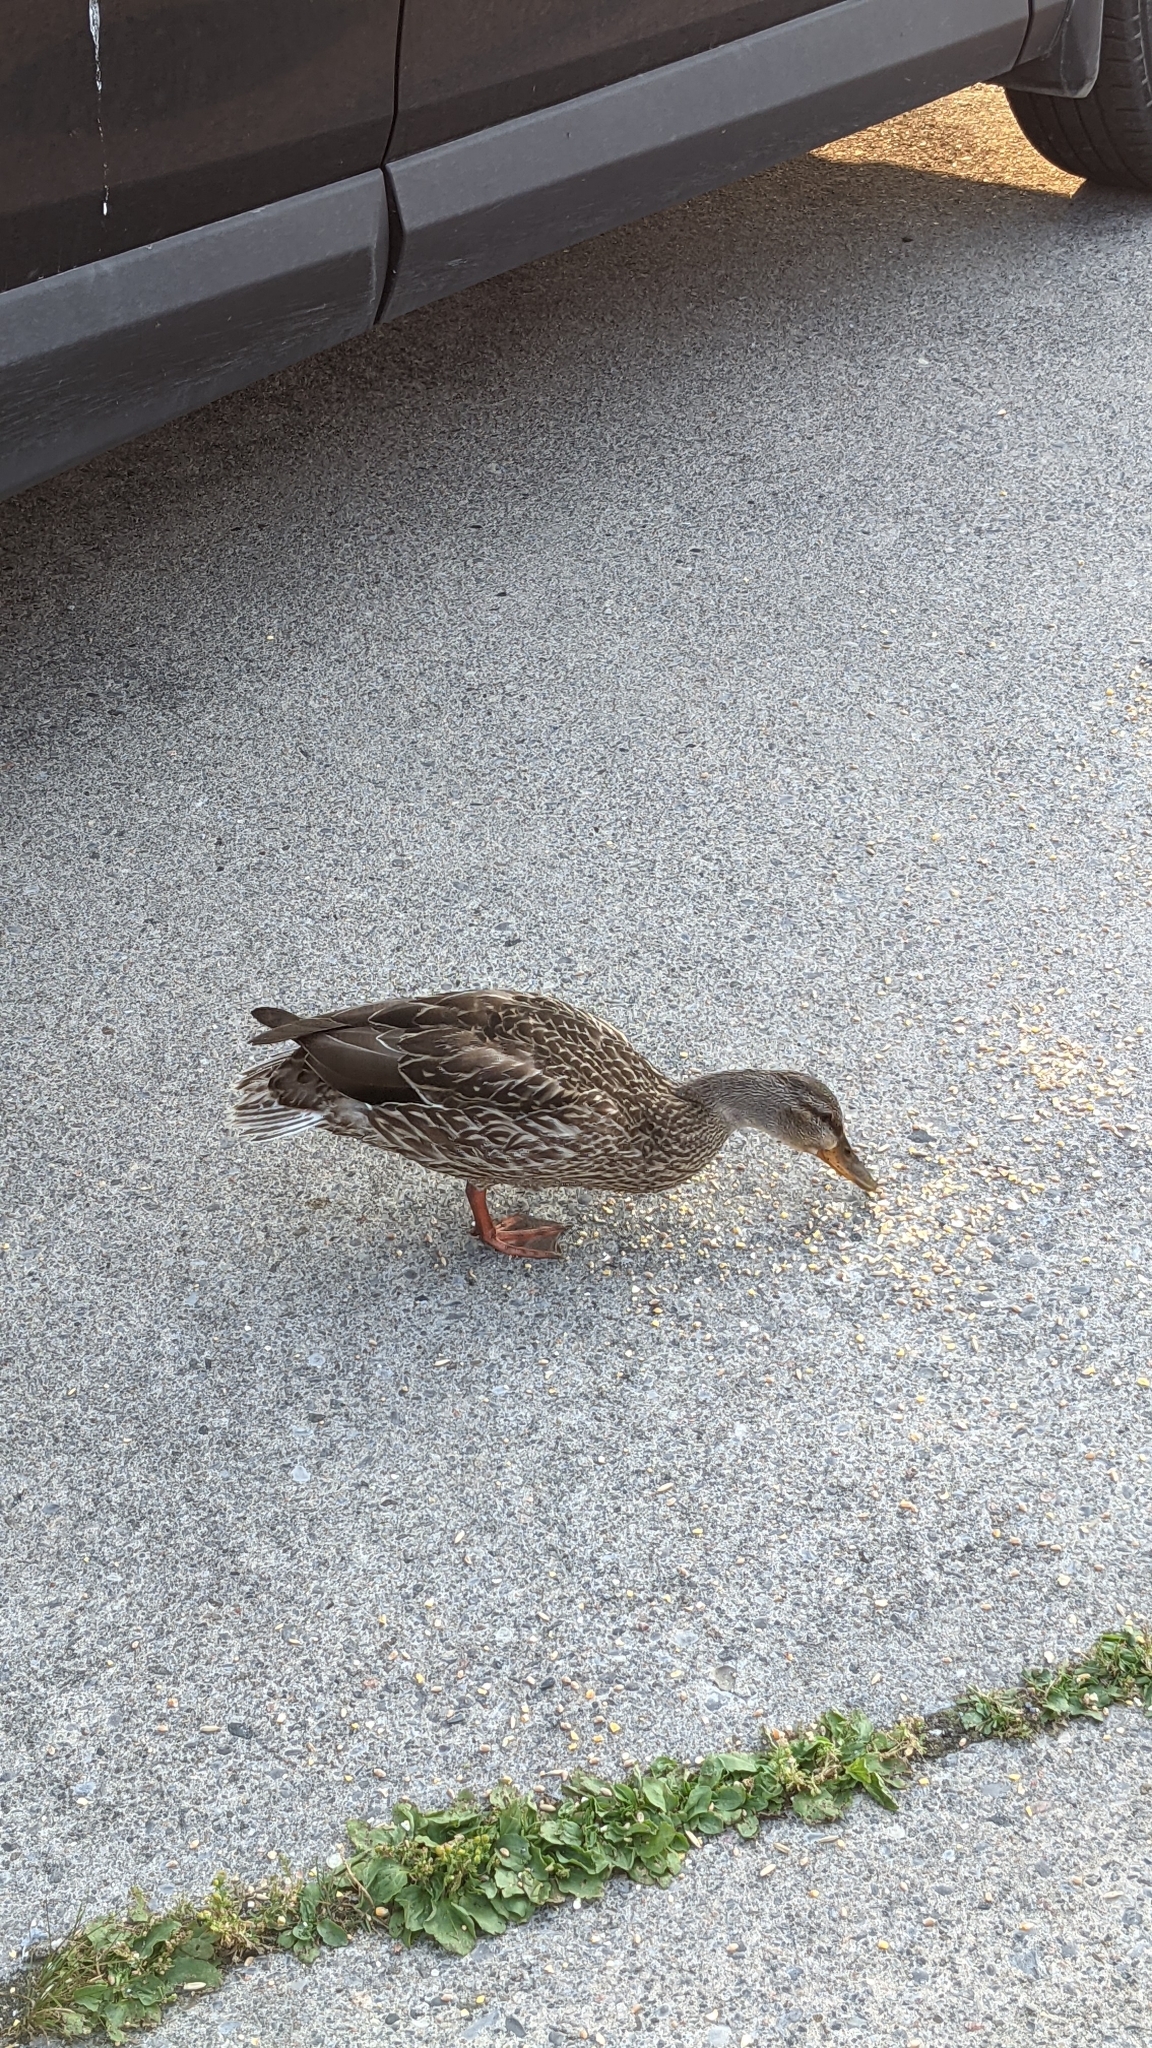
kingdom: Animalia
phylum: Chordata
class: Aves
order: Anseriformes
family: Anatidae
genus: Anas
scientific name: Anas platyrhynchos
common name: Mallard
